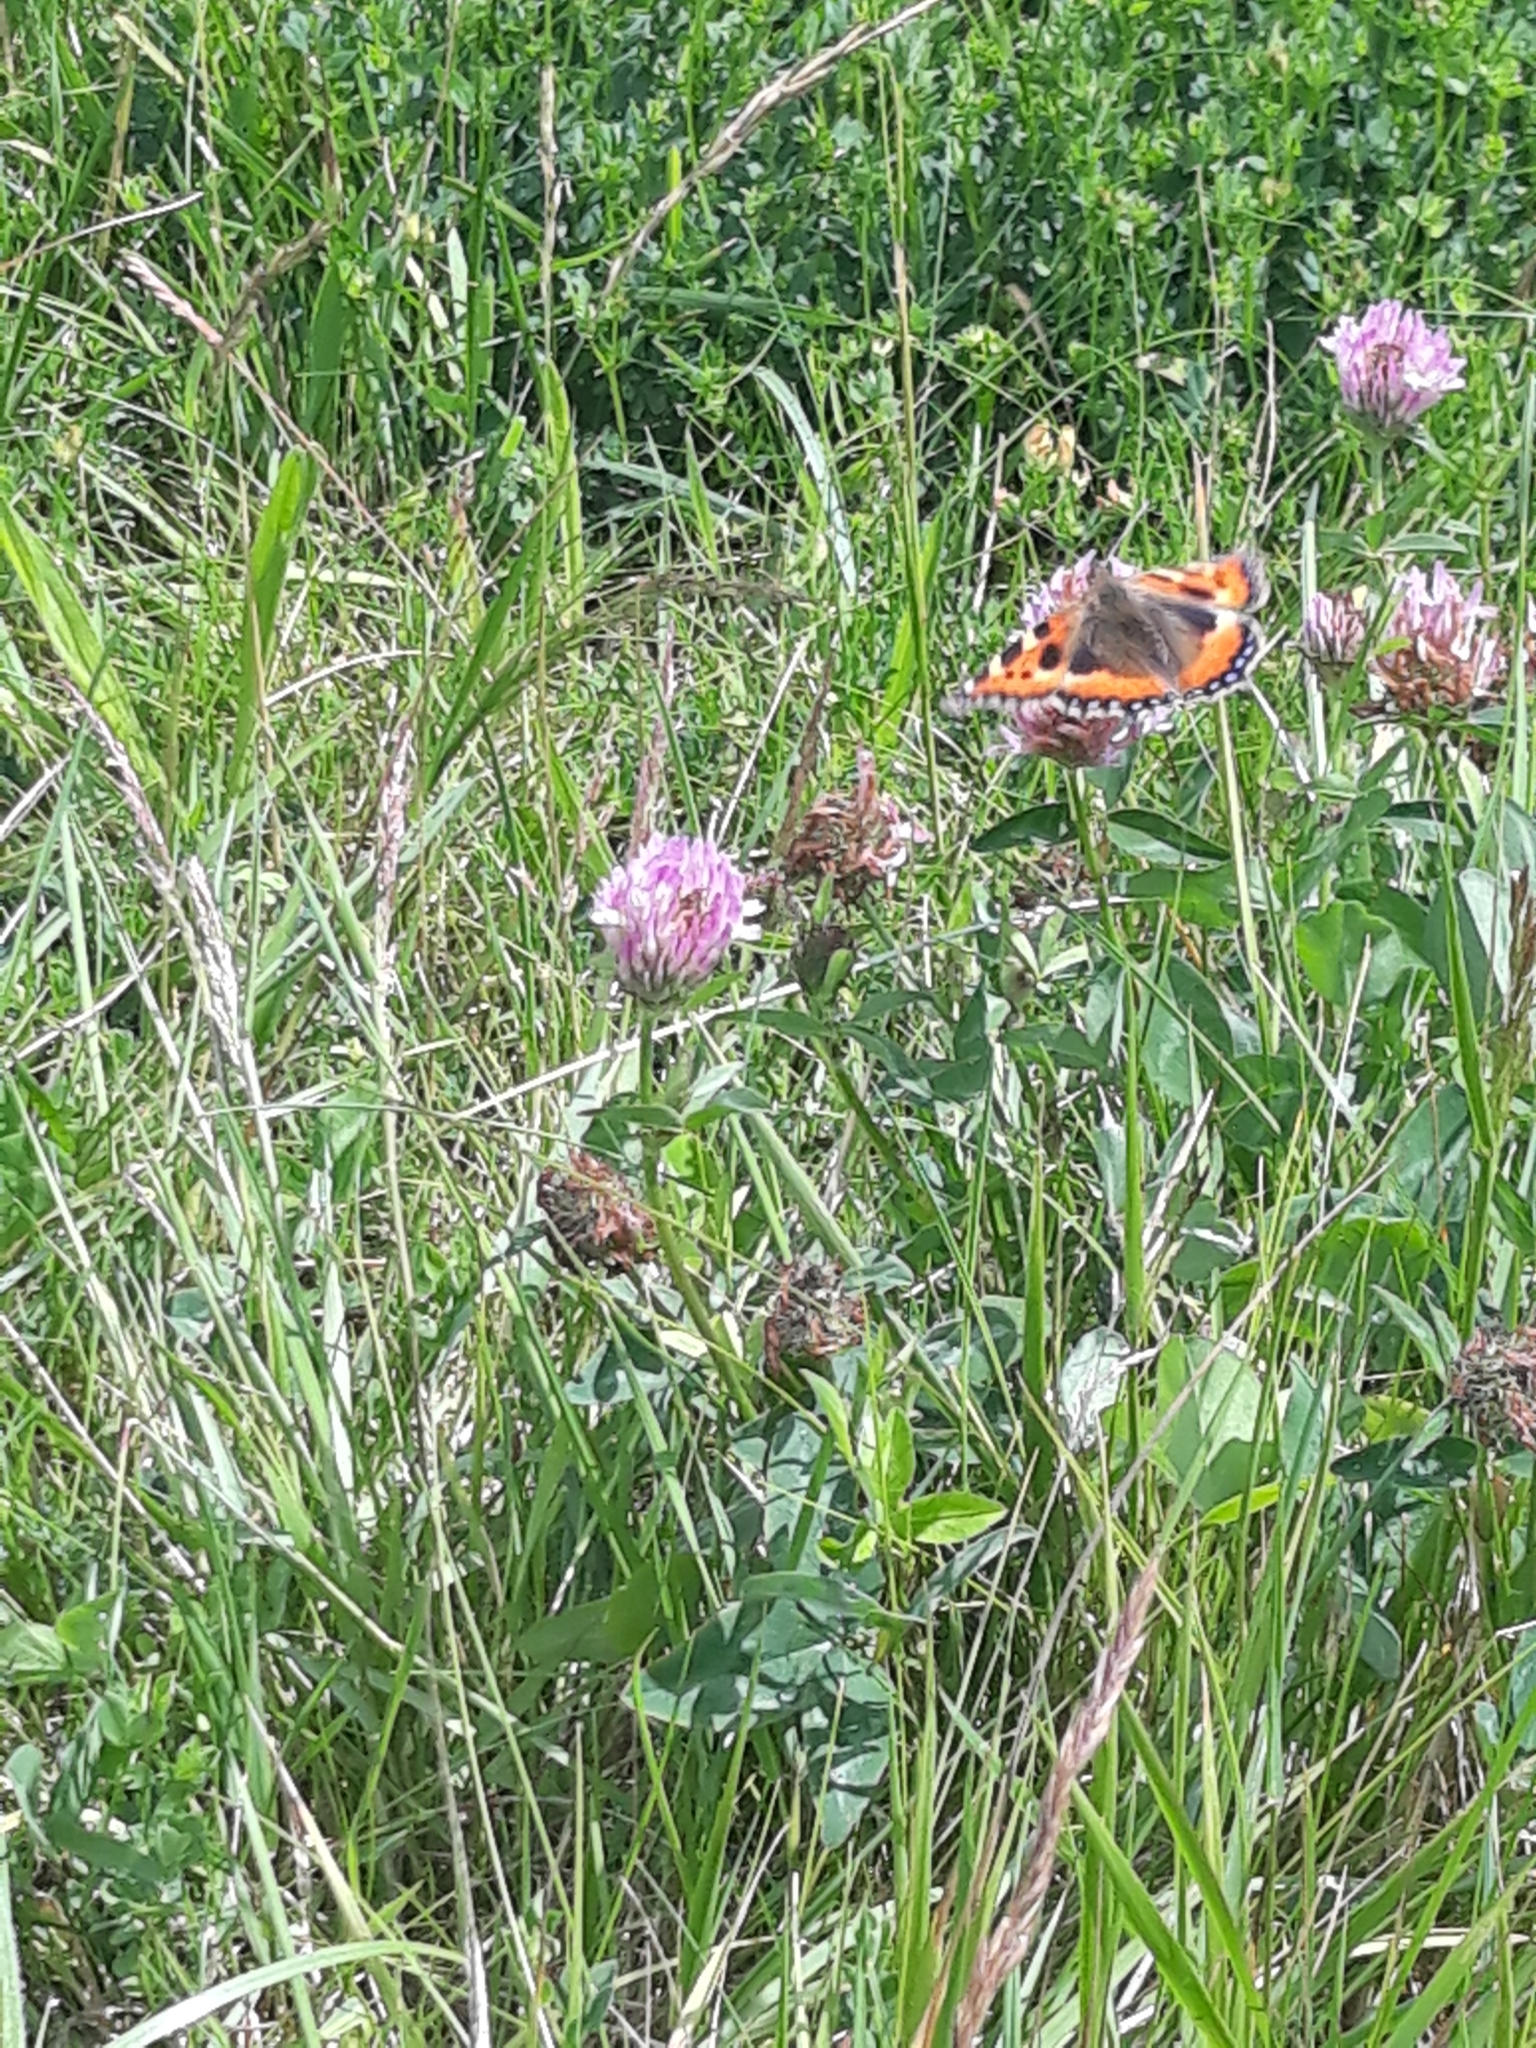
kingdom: Animalia
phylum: Arthropoda
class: Insecta
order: Lepidoptera
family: Nymphalidae
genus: Aglais
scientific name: Aglais urticae
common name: Small tortoiseshell
